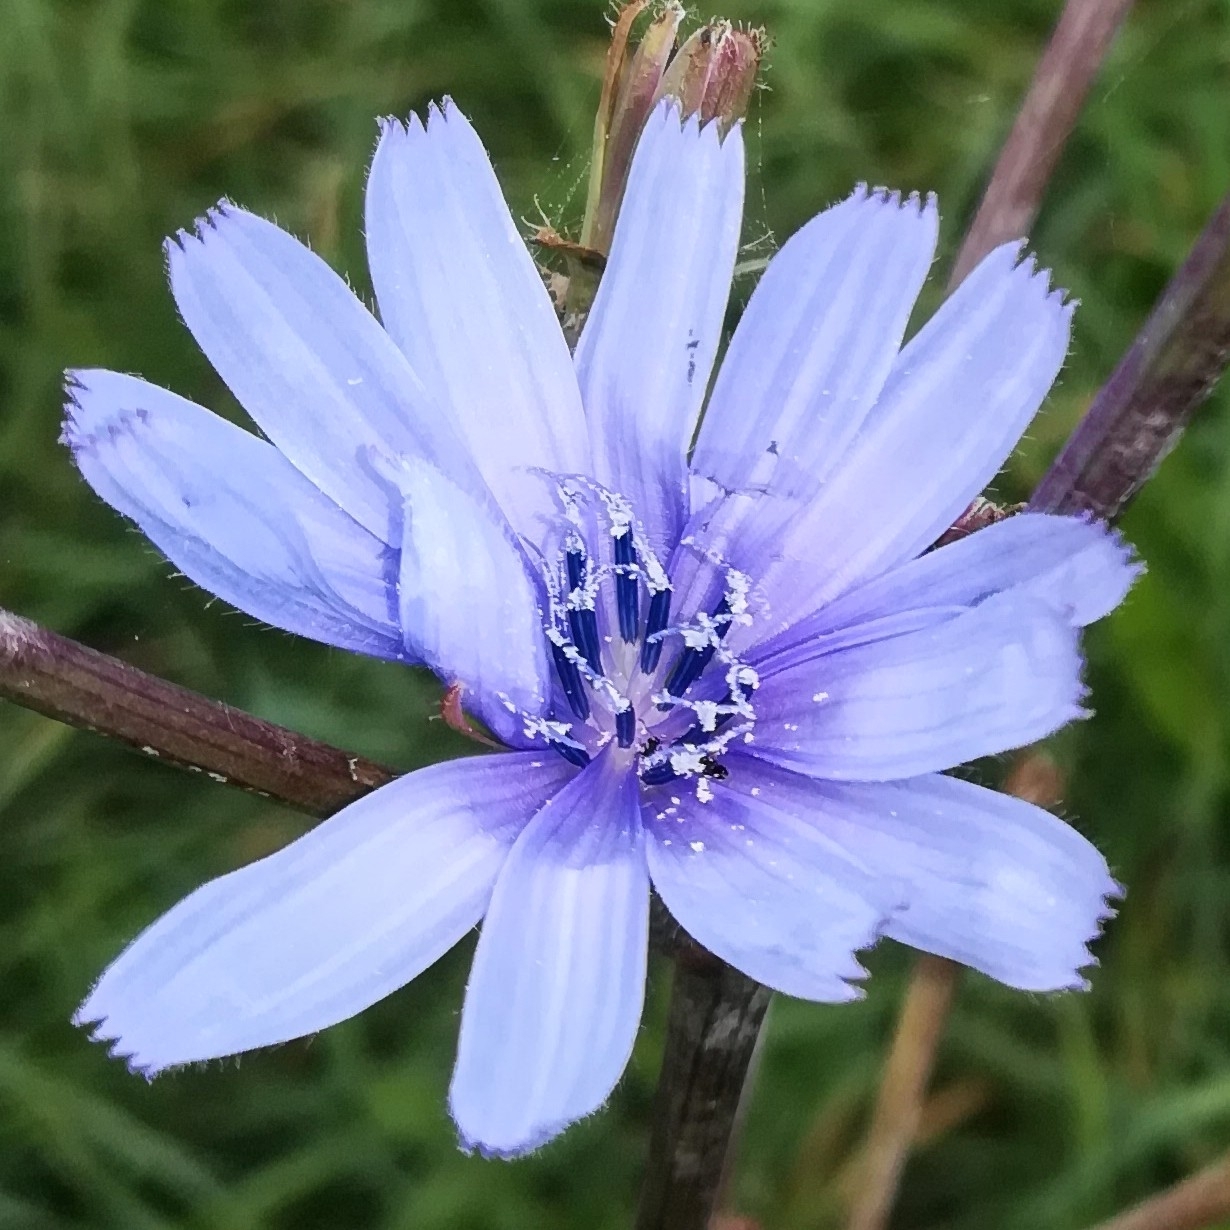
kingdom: Plantae
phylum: Tracheophyta
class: Magnoliopsida
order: Asterales
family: Asteraceae
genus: Cichorium
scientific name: Cichorium intybus
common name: Chicory
